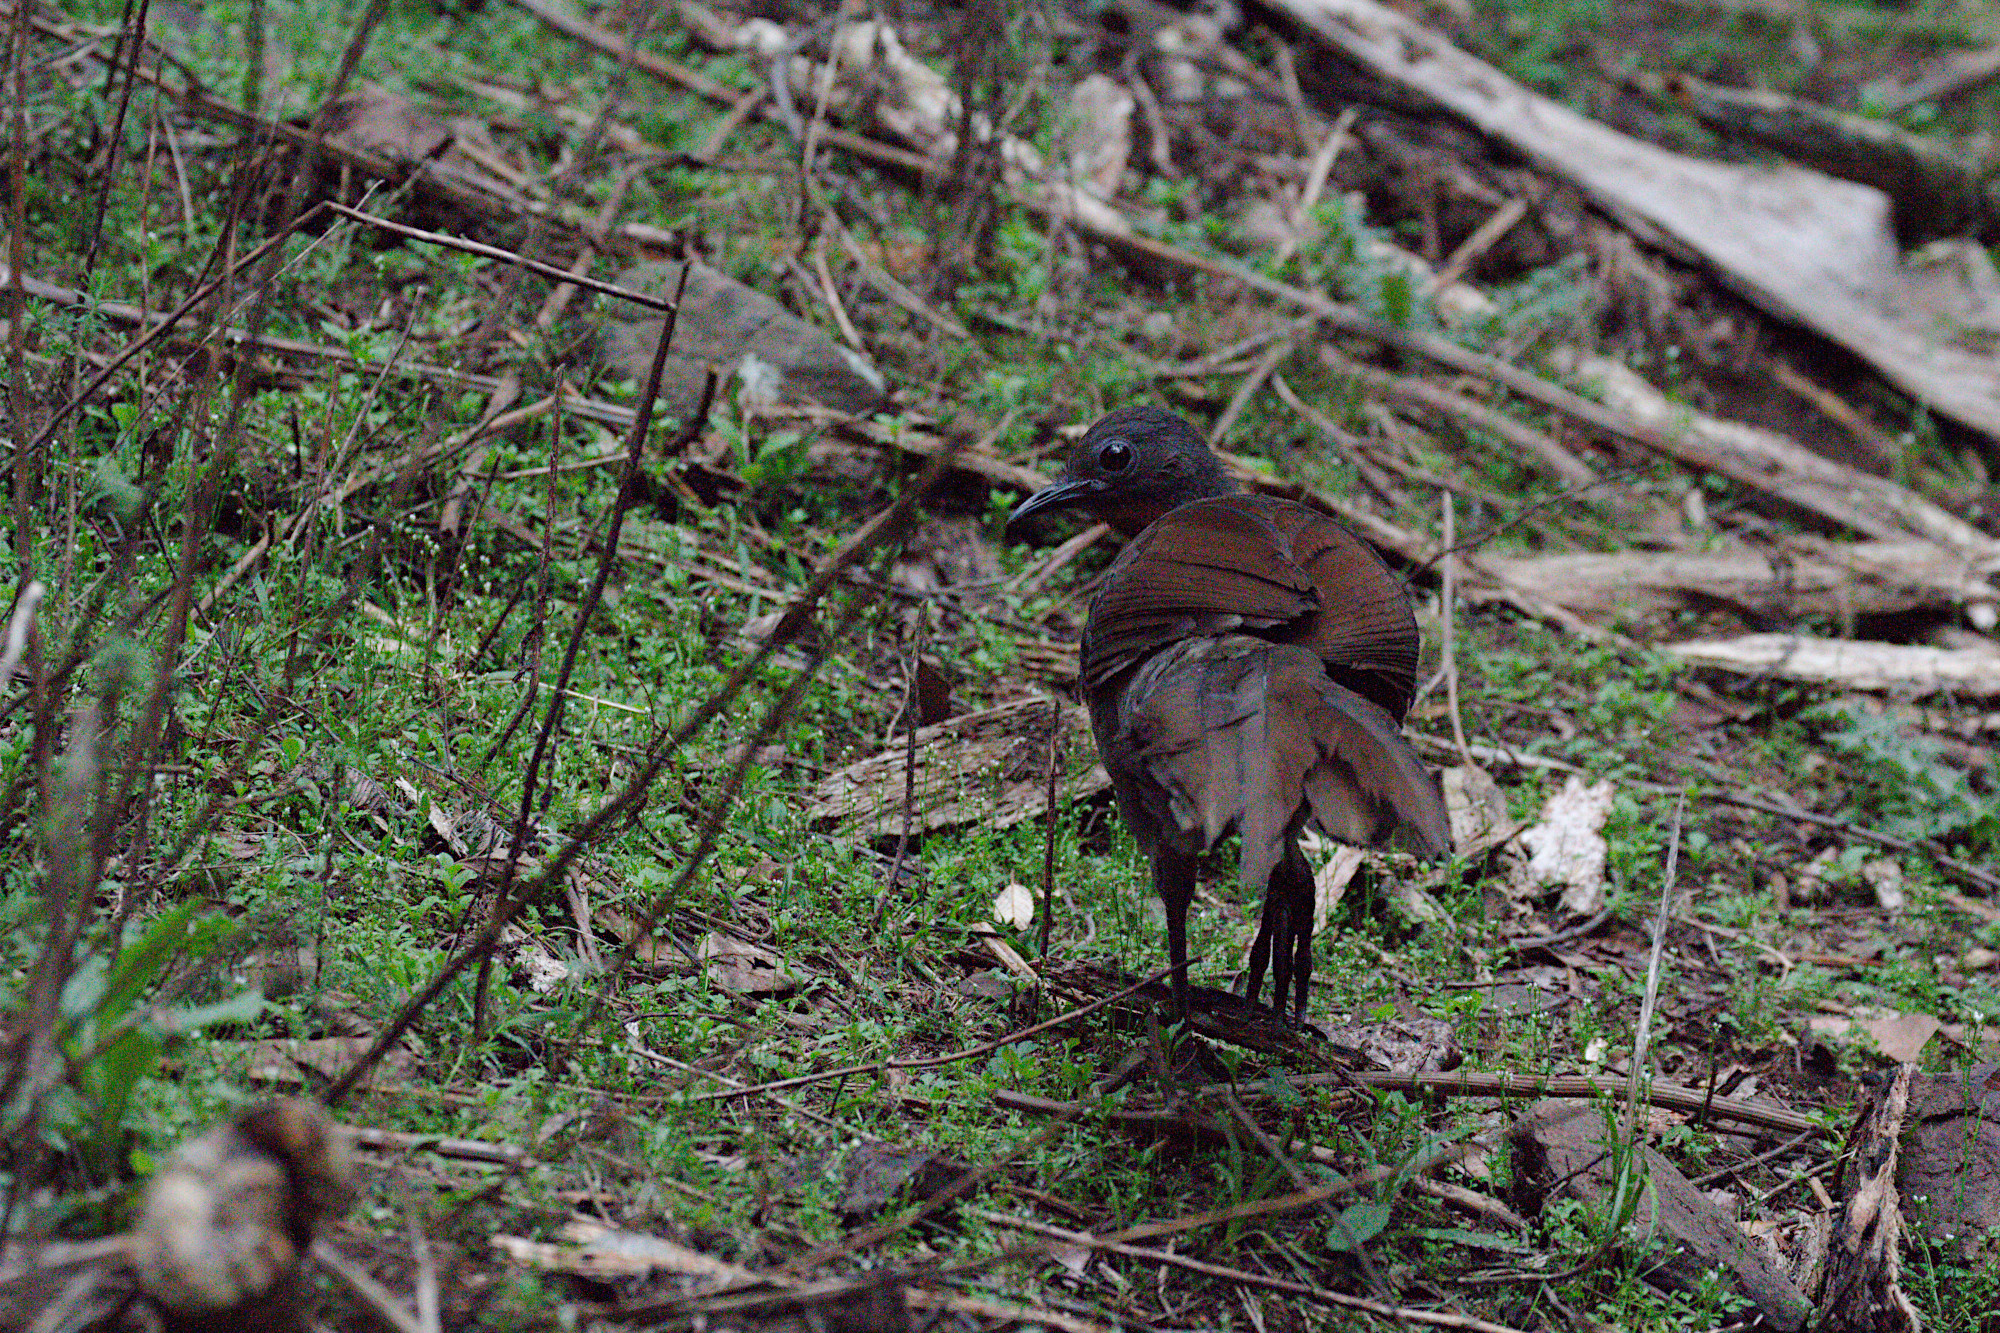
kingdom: Animalia
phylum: Chordata
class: Aves
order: Passeriformes
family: Menuridae
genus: Menura
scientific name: Menura novaehollandiae
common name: Superb lyrebird
